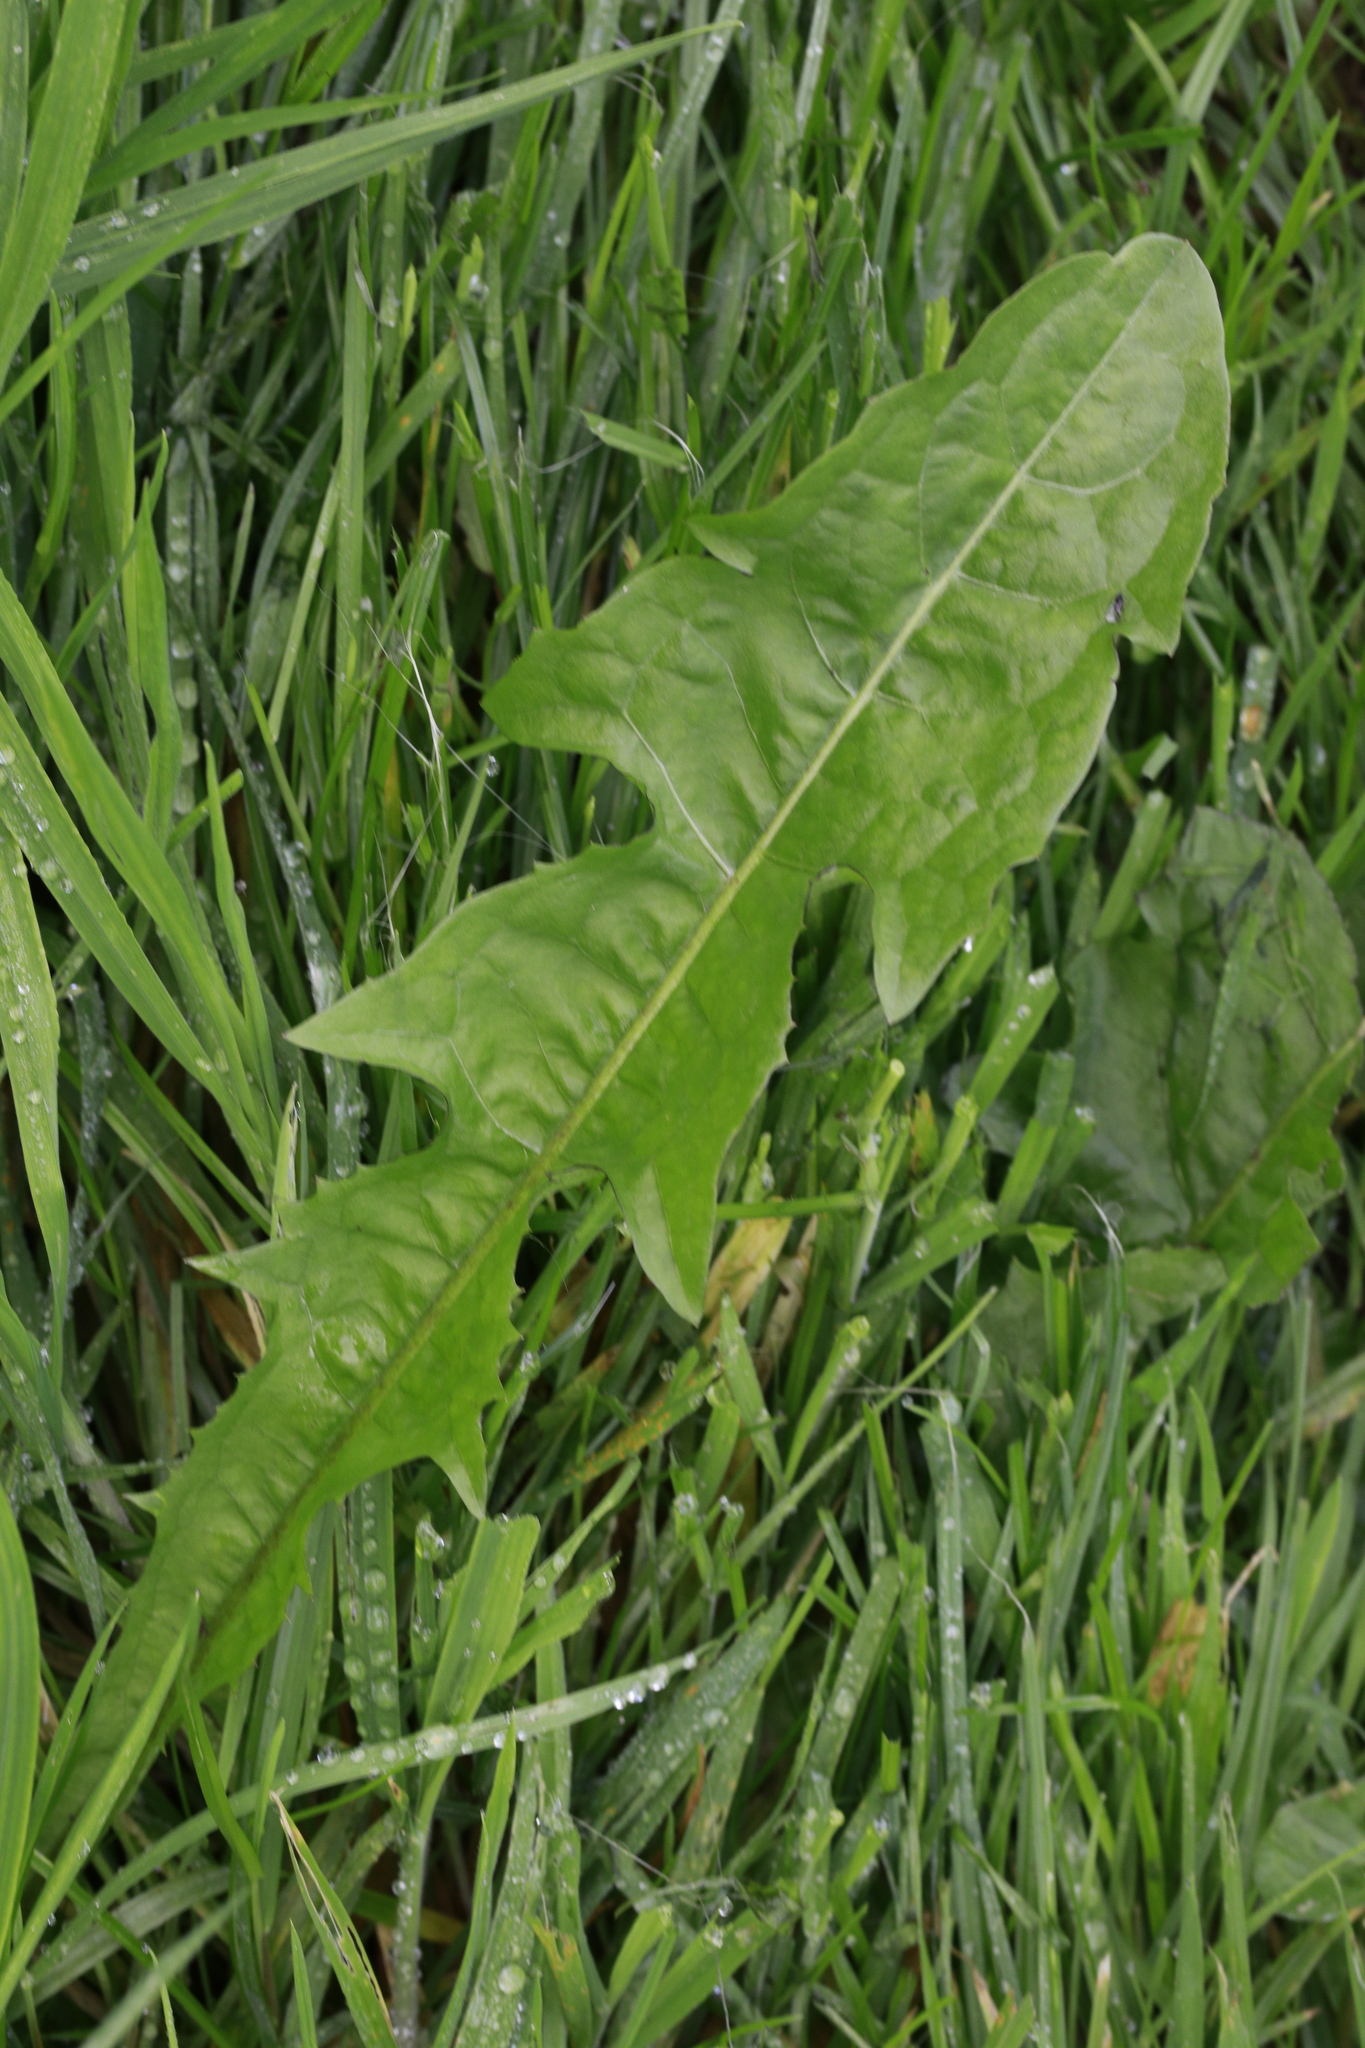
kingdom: Plantae
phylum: Tracheophyta
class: Magnoliopsida
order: Asterales
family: Asteraceae
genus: Taraxacum
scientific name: Taraxacum officinale
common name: Common dandelion
